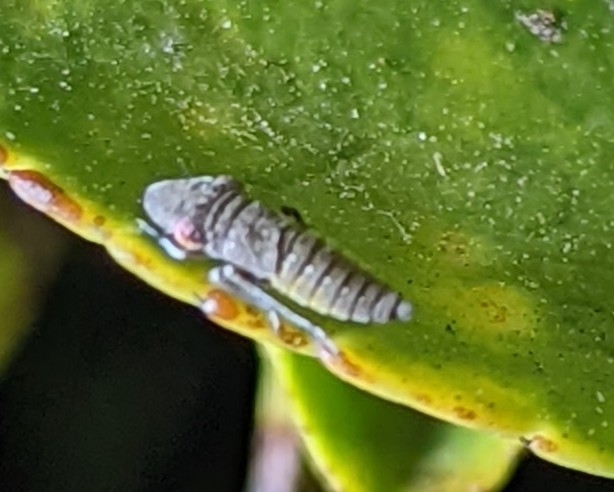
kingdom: Animalia
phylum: Arthropoda
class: Insecta
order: Hemiptera
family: Cicadellidae
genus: Homalodisca
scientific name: Homalodisca
